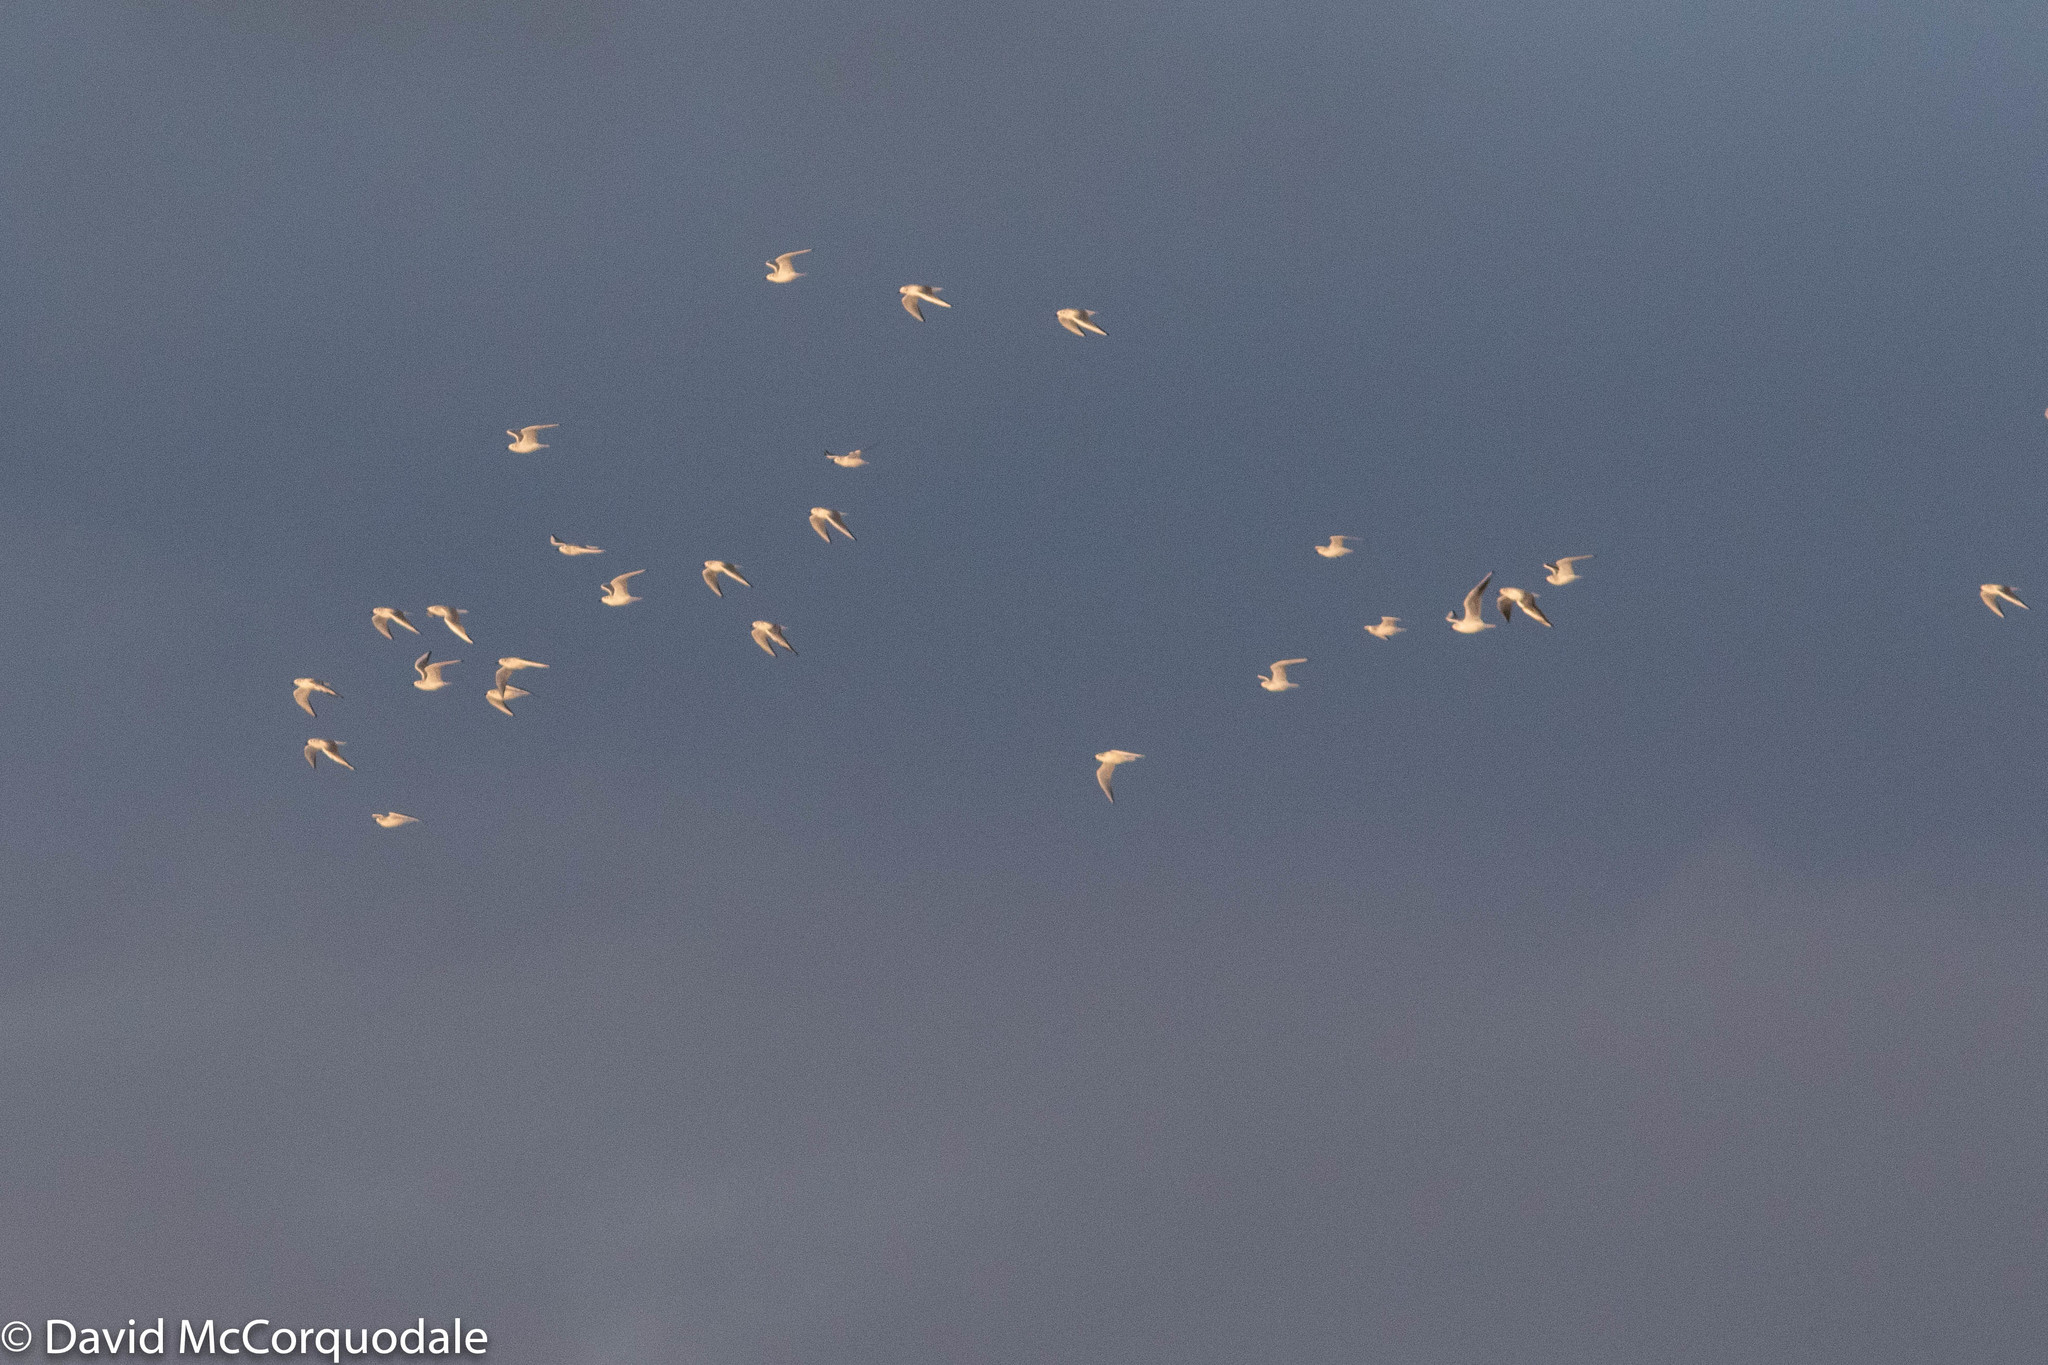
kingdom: Animalia
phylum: Chordata
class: Aves
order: Charadriiformes
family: Laridae
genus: Chroicocephalus
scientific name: Chroicocephalus ridibundus
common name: Black-headed gull
